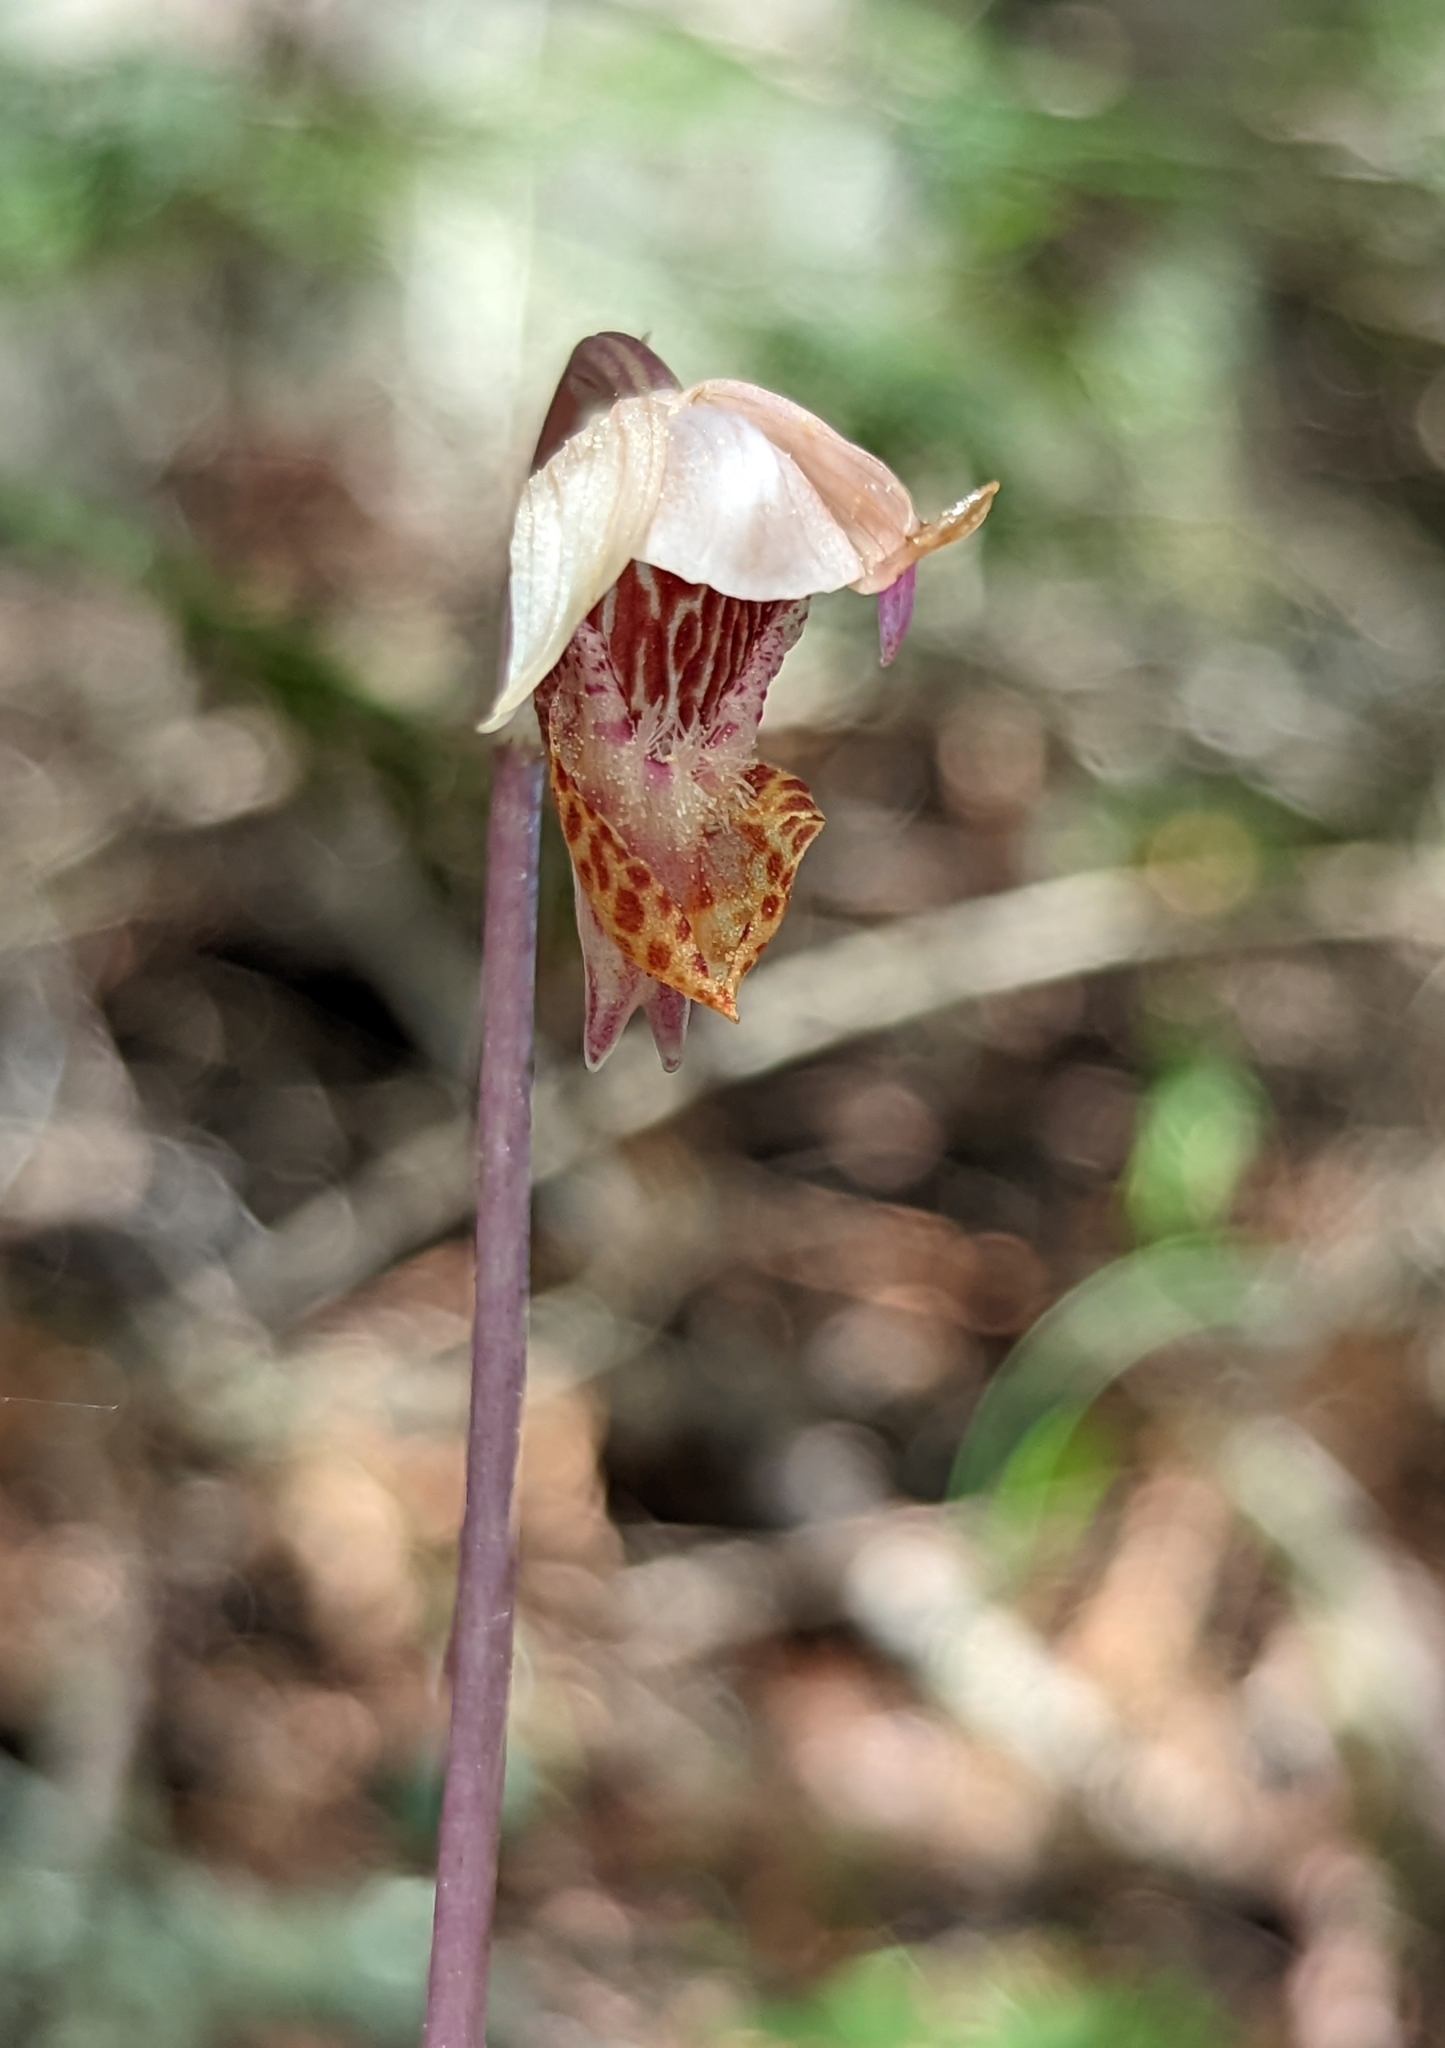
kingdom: Plantae
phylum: Tracheophyta
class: Liliopsida
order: Asparagales
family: Orchidaceae
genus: Calypso
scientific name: Calypso bulbosa
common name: Calypso
